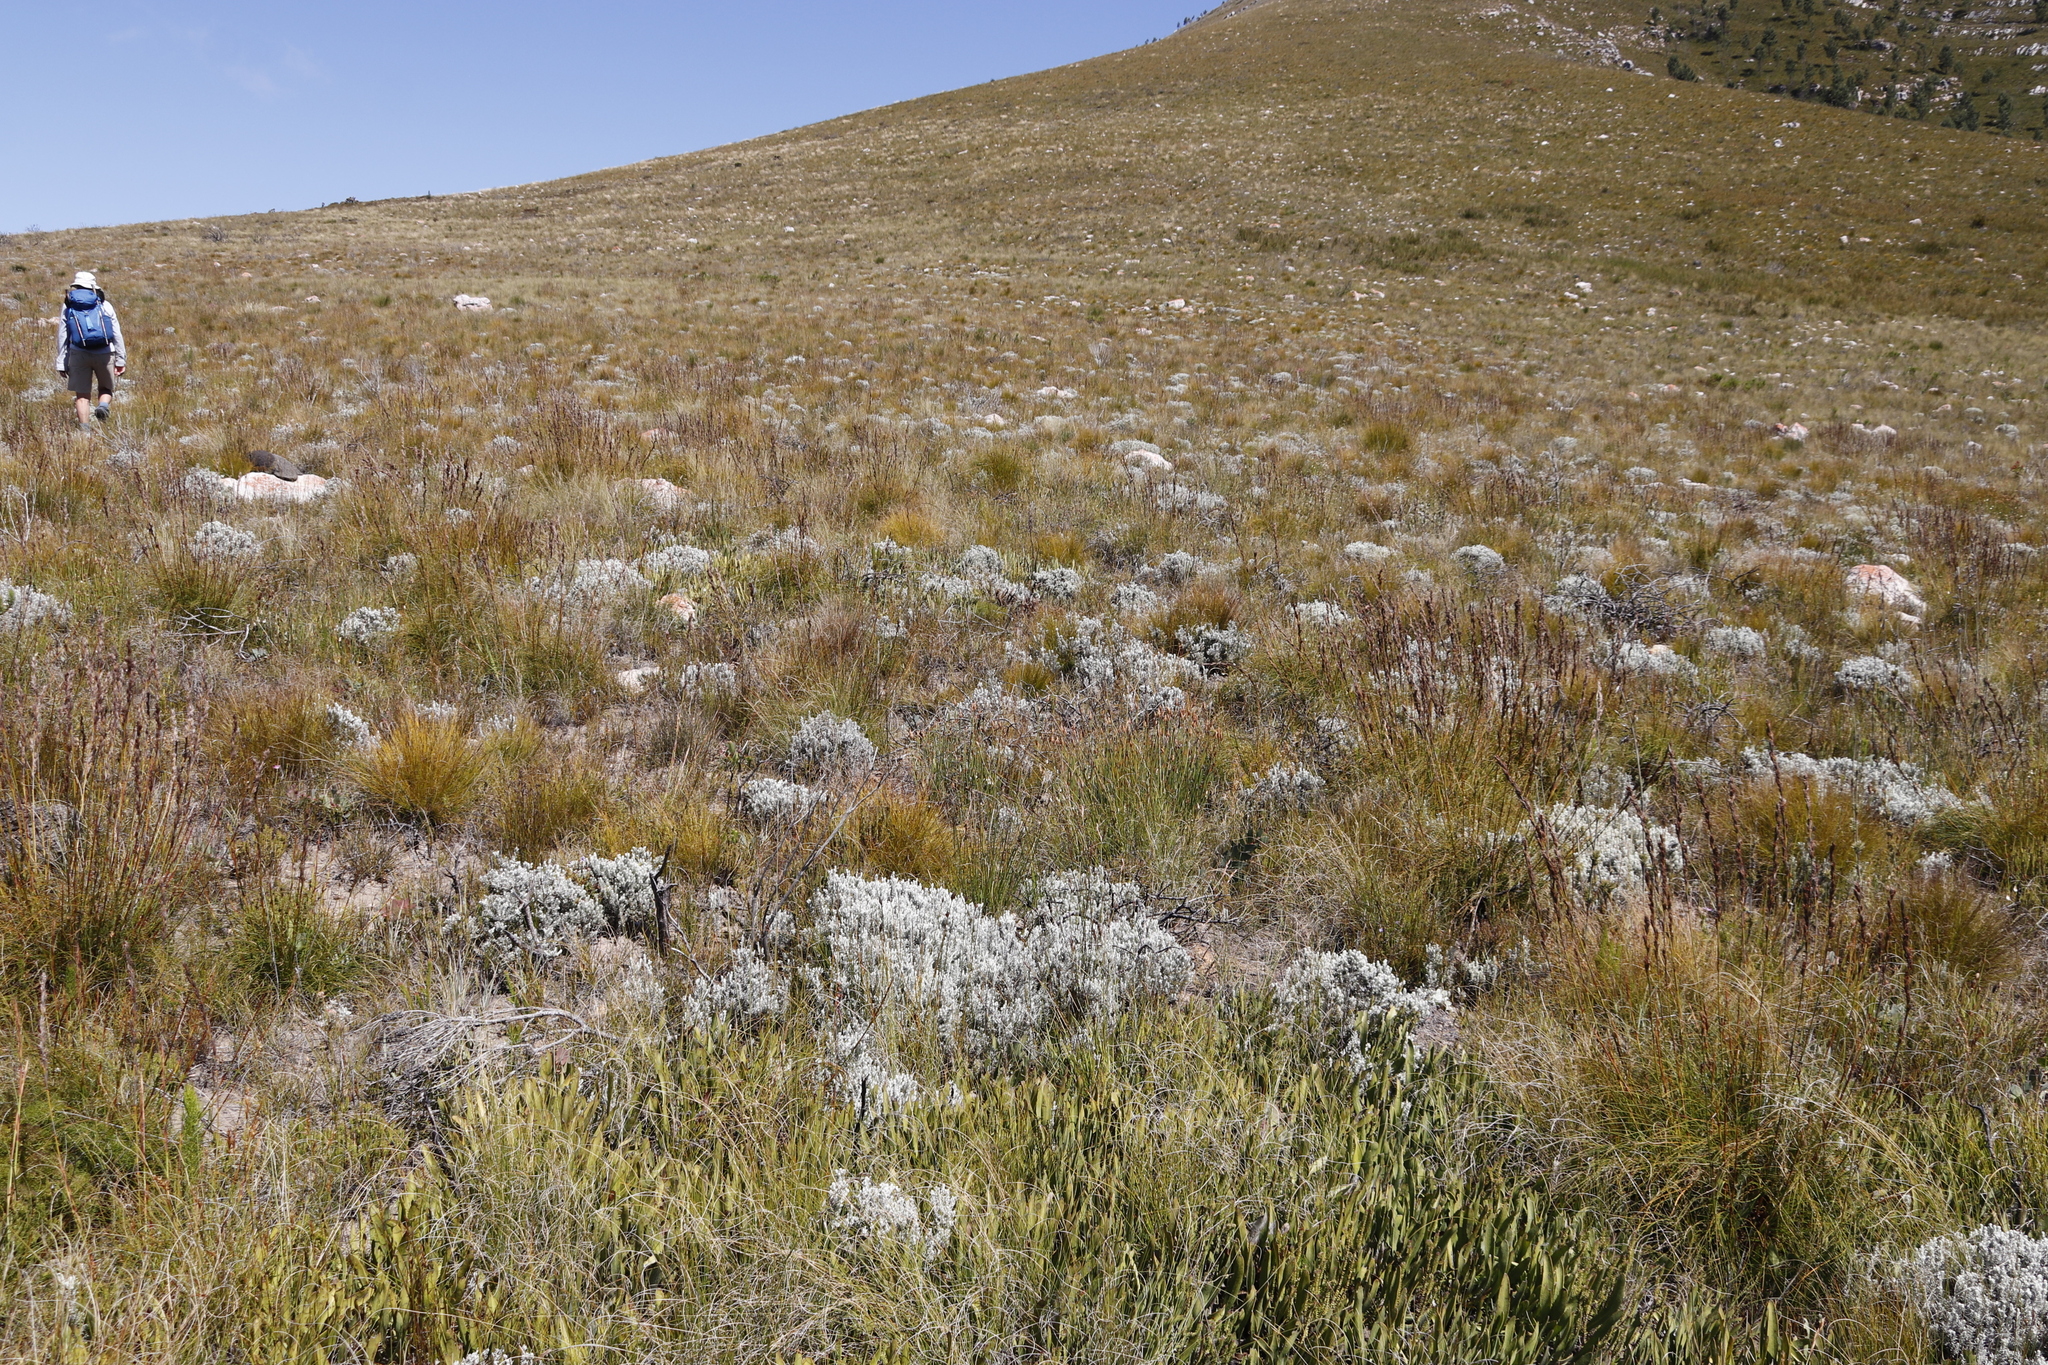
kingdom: Plantae
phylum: Tracheophyta
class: Magnoliopsida
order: Proteales
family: Proteaceae
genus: Protea
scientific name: Protea scabra
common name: Sandpaper-leaf sugarbush
